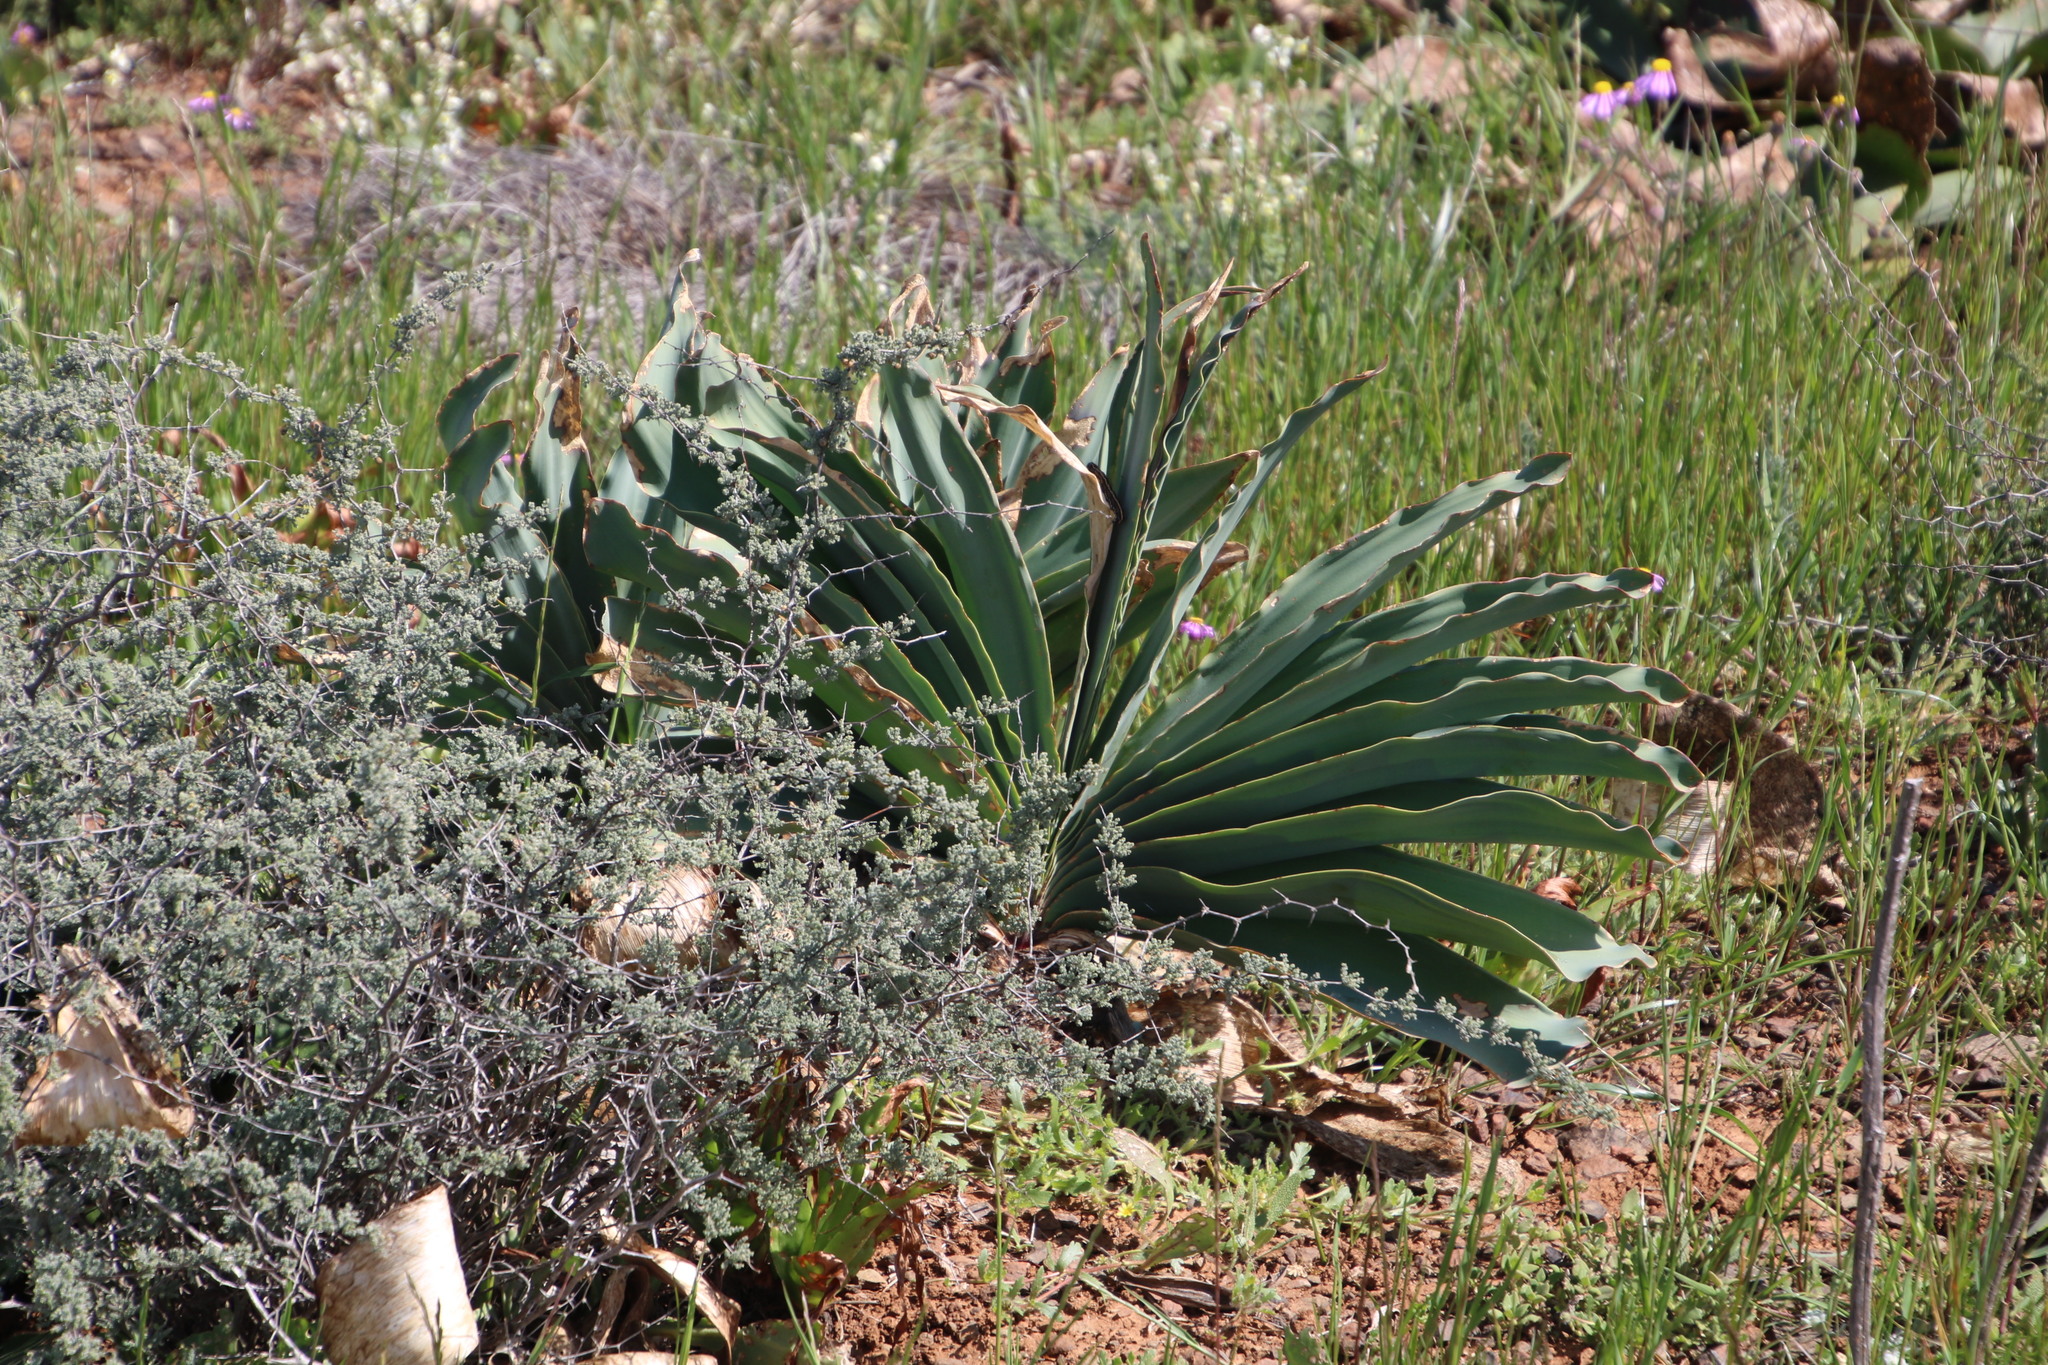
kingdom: Plantae
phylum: Tracheophyta
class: Liliopsida
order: Asparagales
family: Amaryllidaceae
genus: Boophone
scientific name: Boophone haemanthoides
